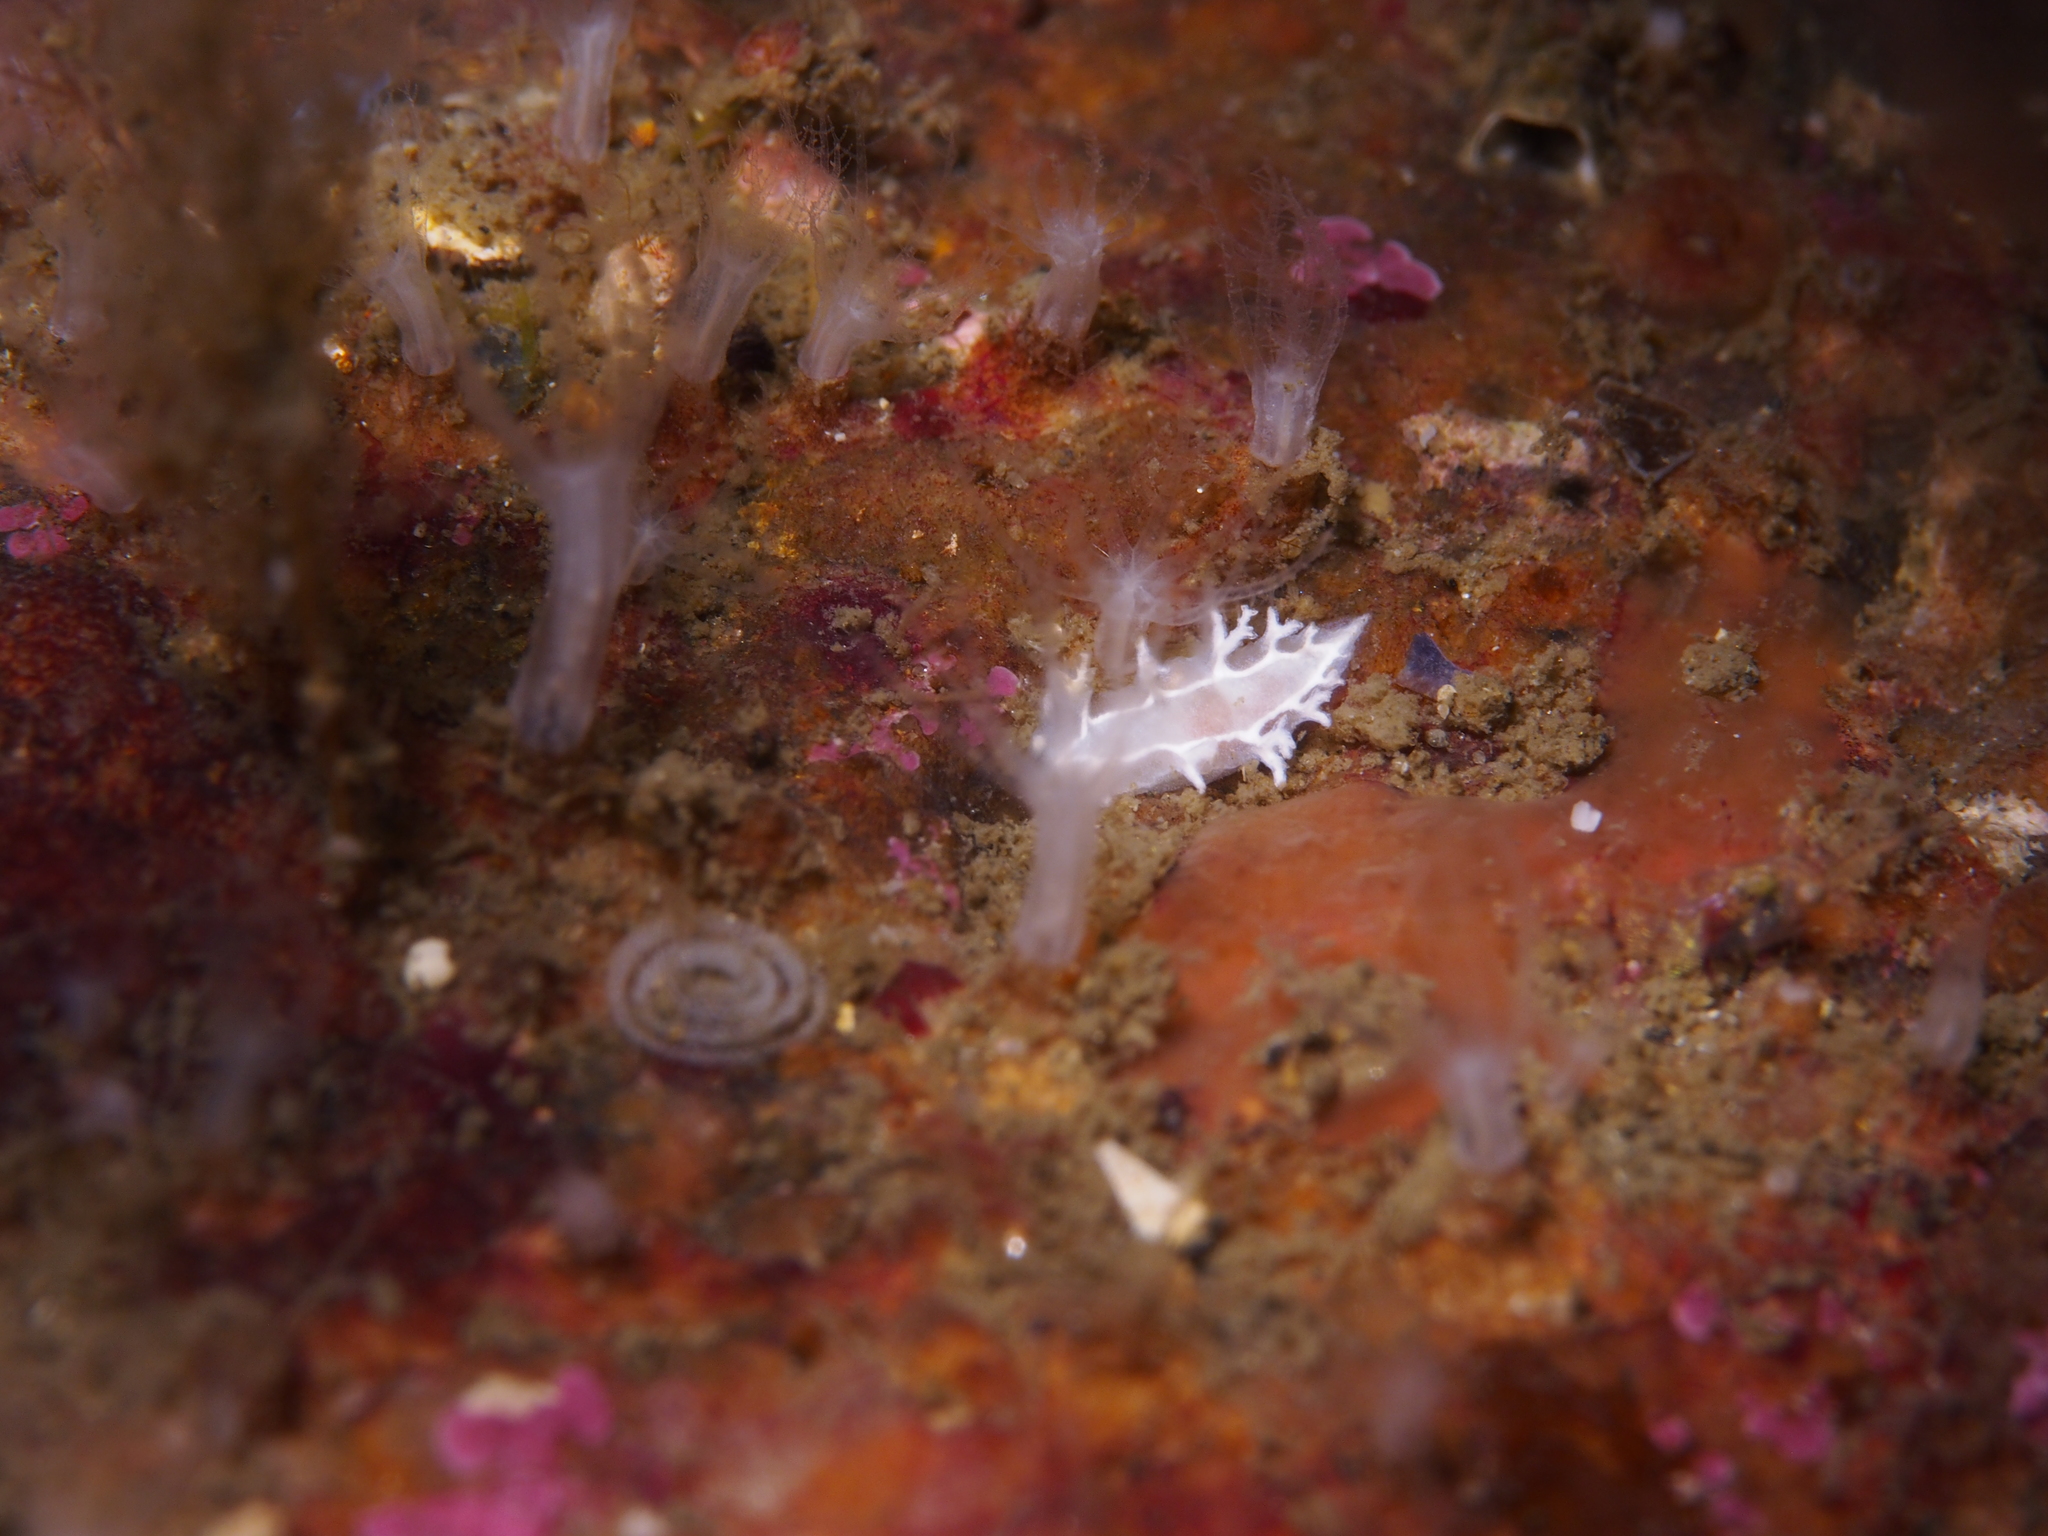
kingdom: Animalia
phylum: Mollusca
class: Gastropoda
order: Nudibranchia
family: Tritoniidae
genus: Duvaucelia
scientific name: Duvaucelia lineata
